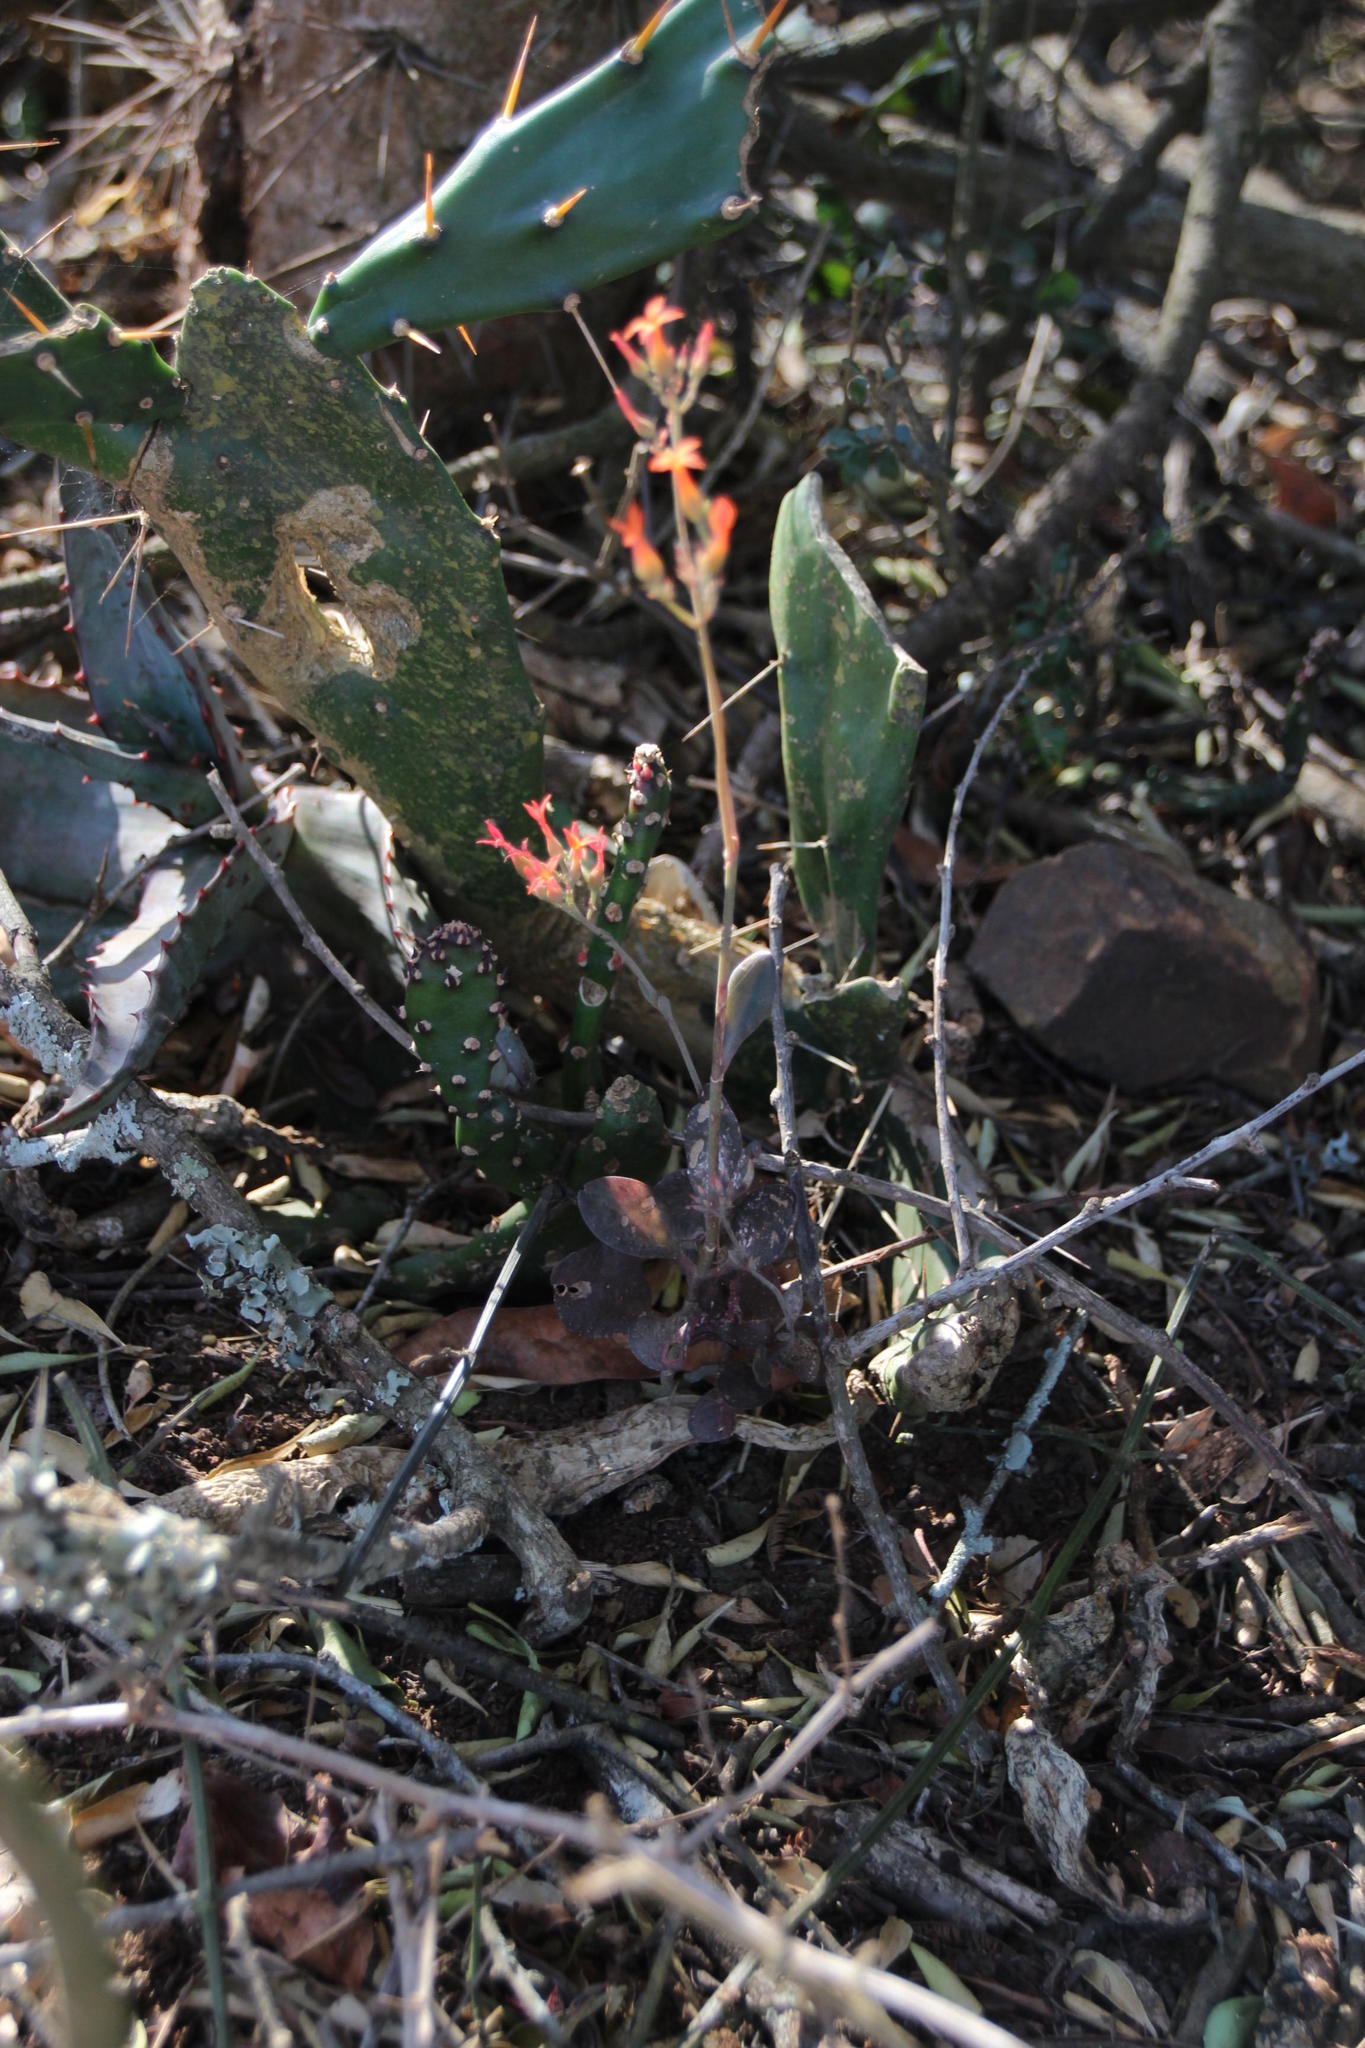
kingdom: Plantae
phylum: Tracheophyta
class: Magnoliopsida
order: Saxifragales
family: Crassulaceae
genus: Kalanchoe
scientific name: Kalanchoe rotundifolia
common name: Common kalanchoe
